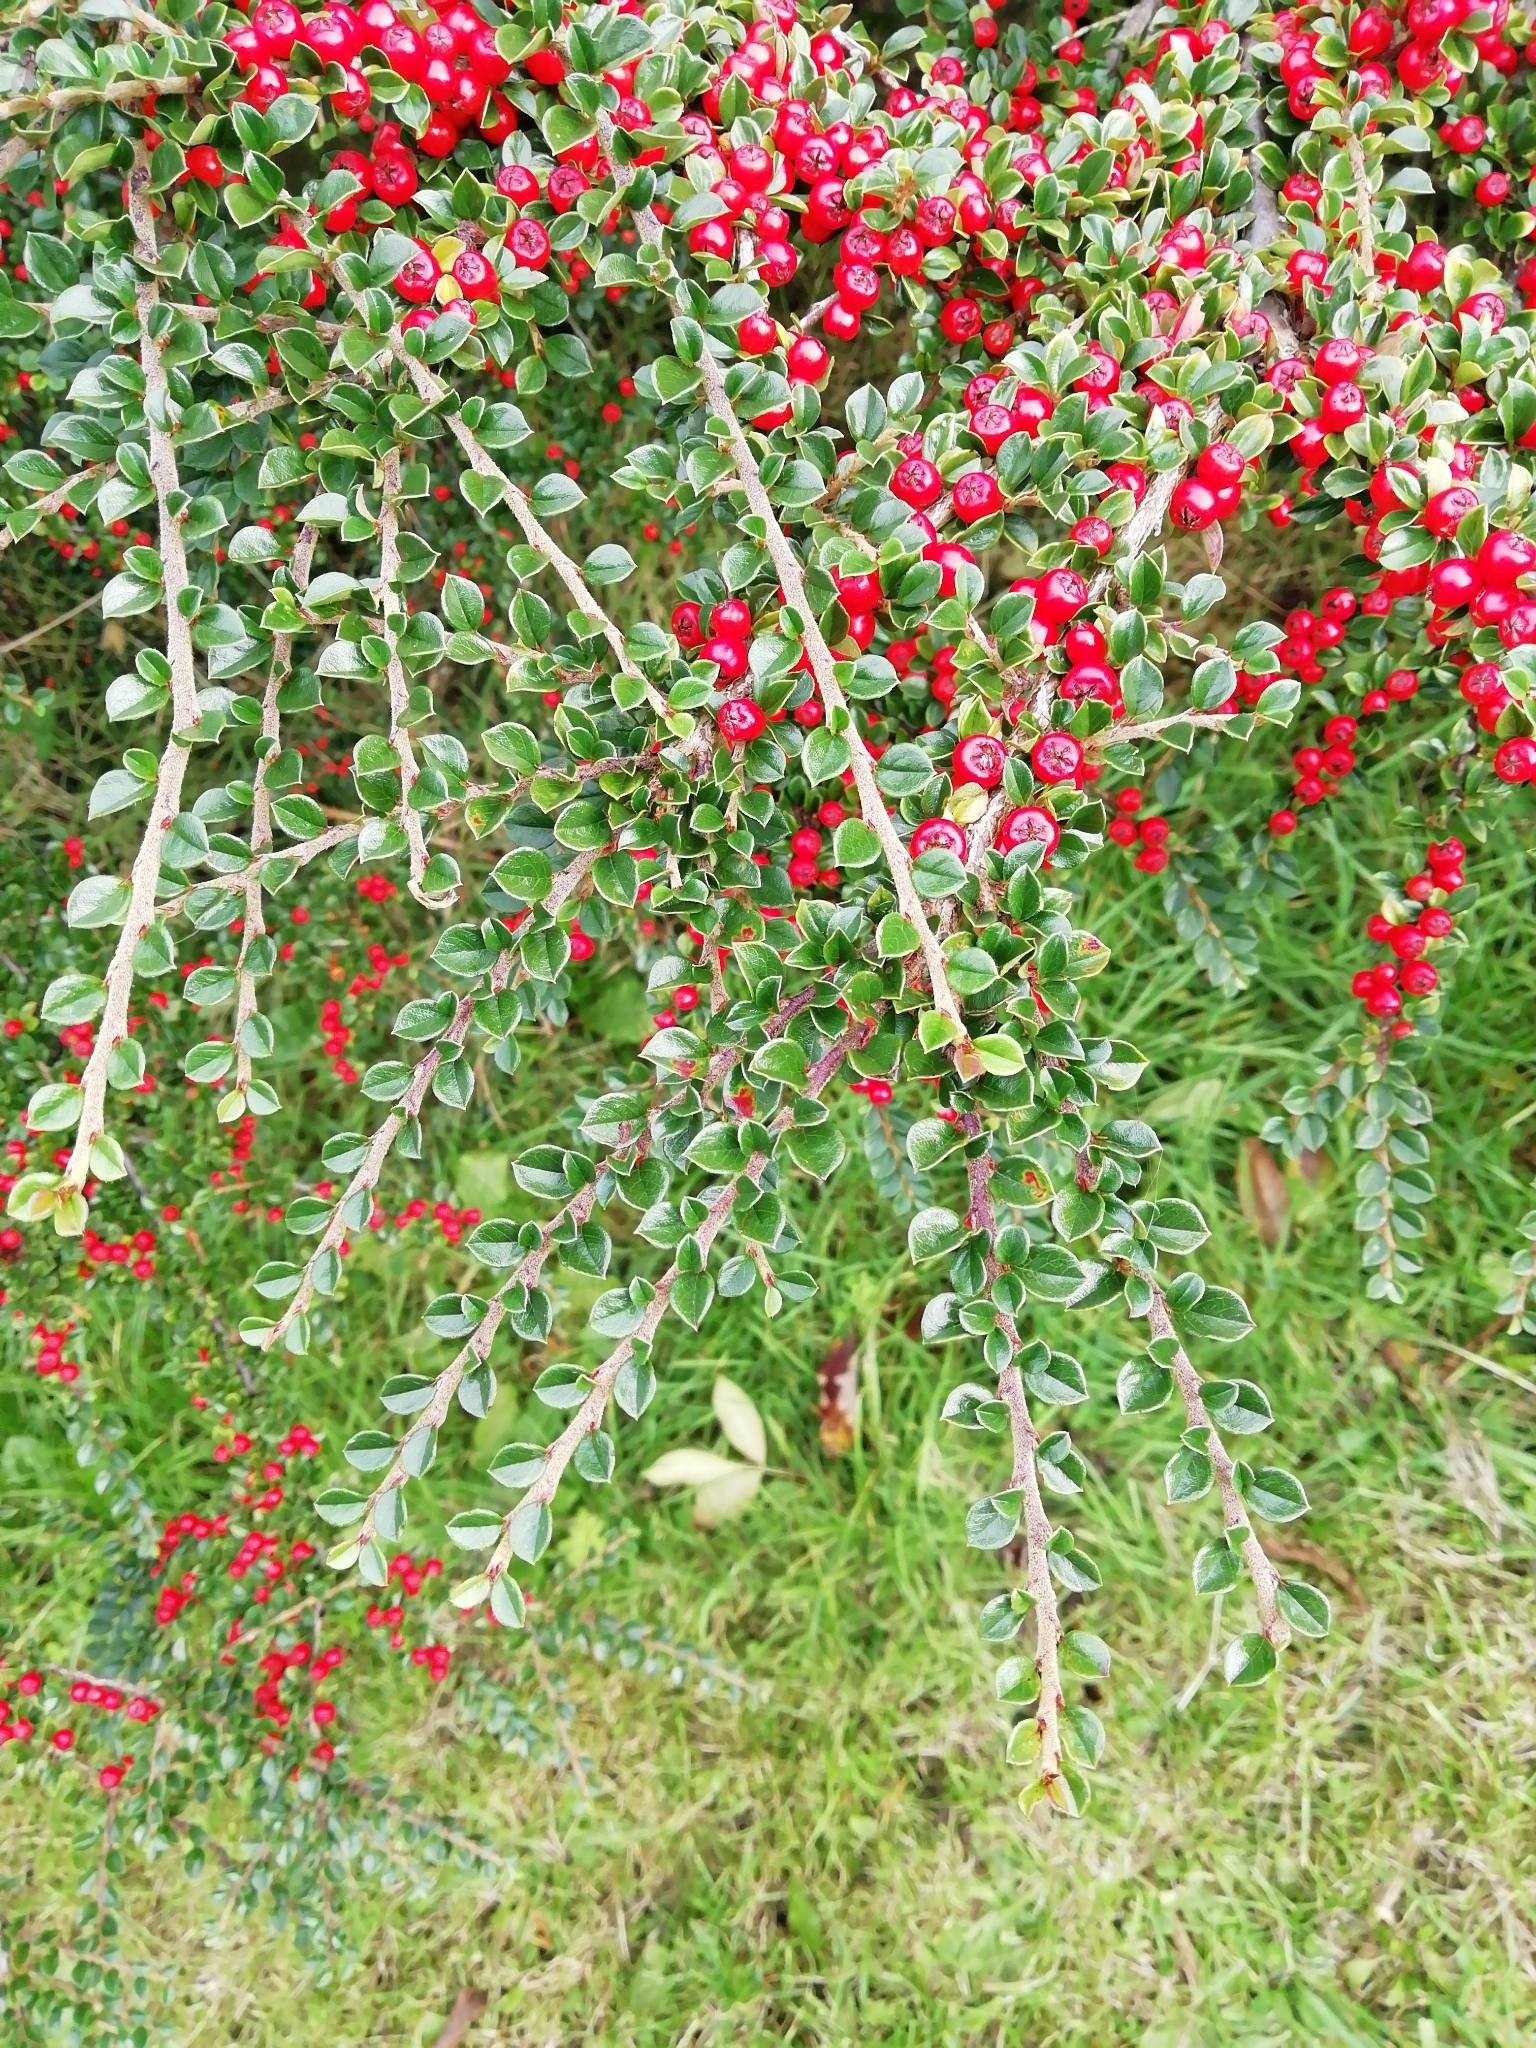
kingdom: Plantae
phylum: Tracheophyta
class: Magnoliopsida
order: Rosales
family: Rosaceae
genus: Cotoneaster
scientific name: Cotoneaster horizontalis
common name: Wall cotoneaster
